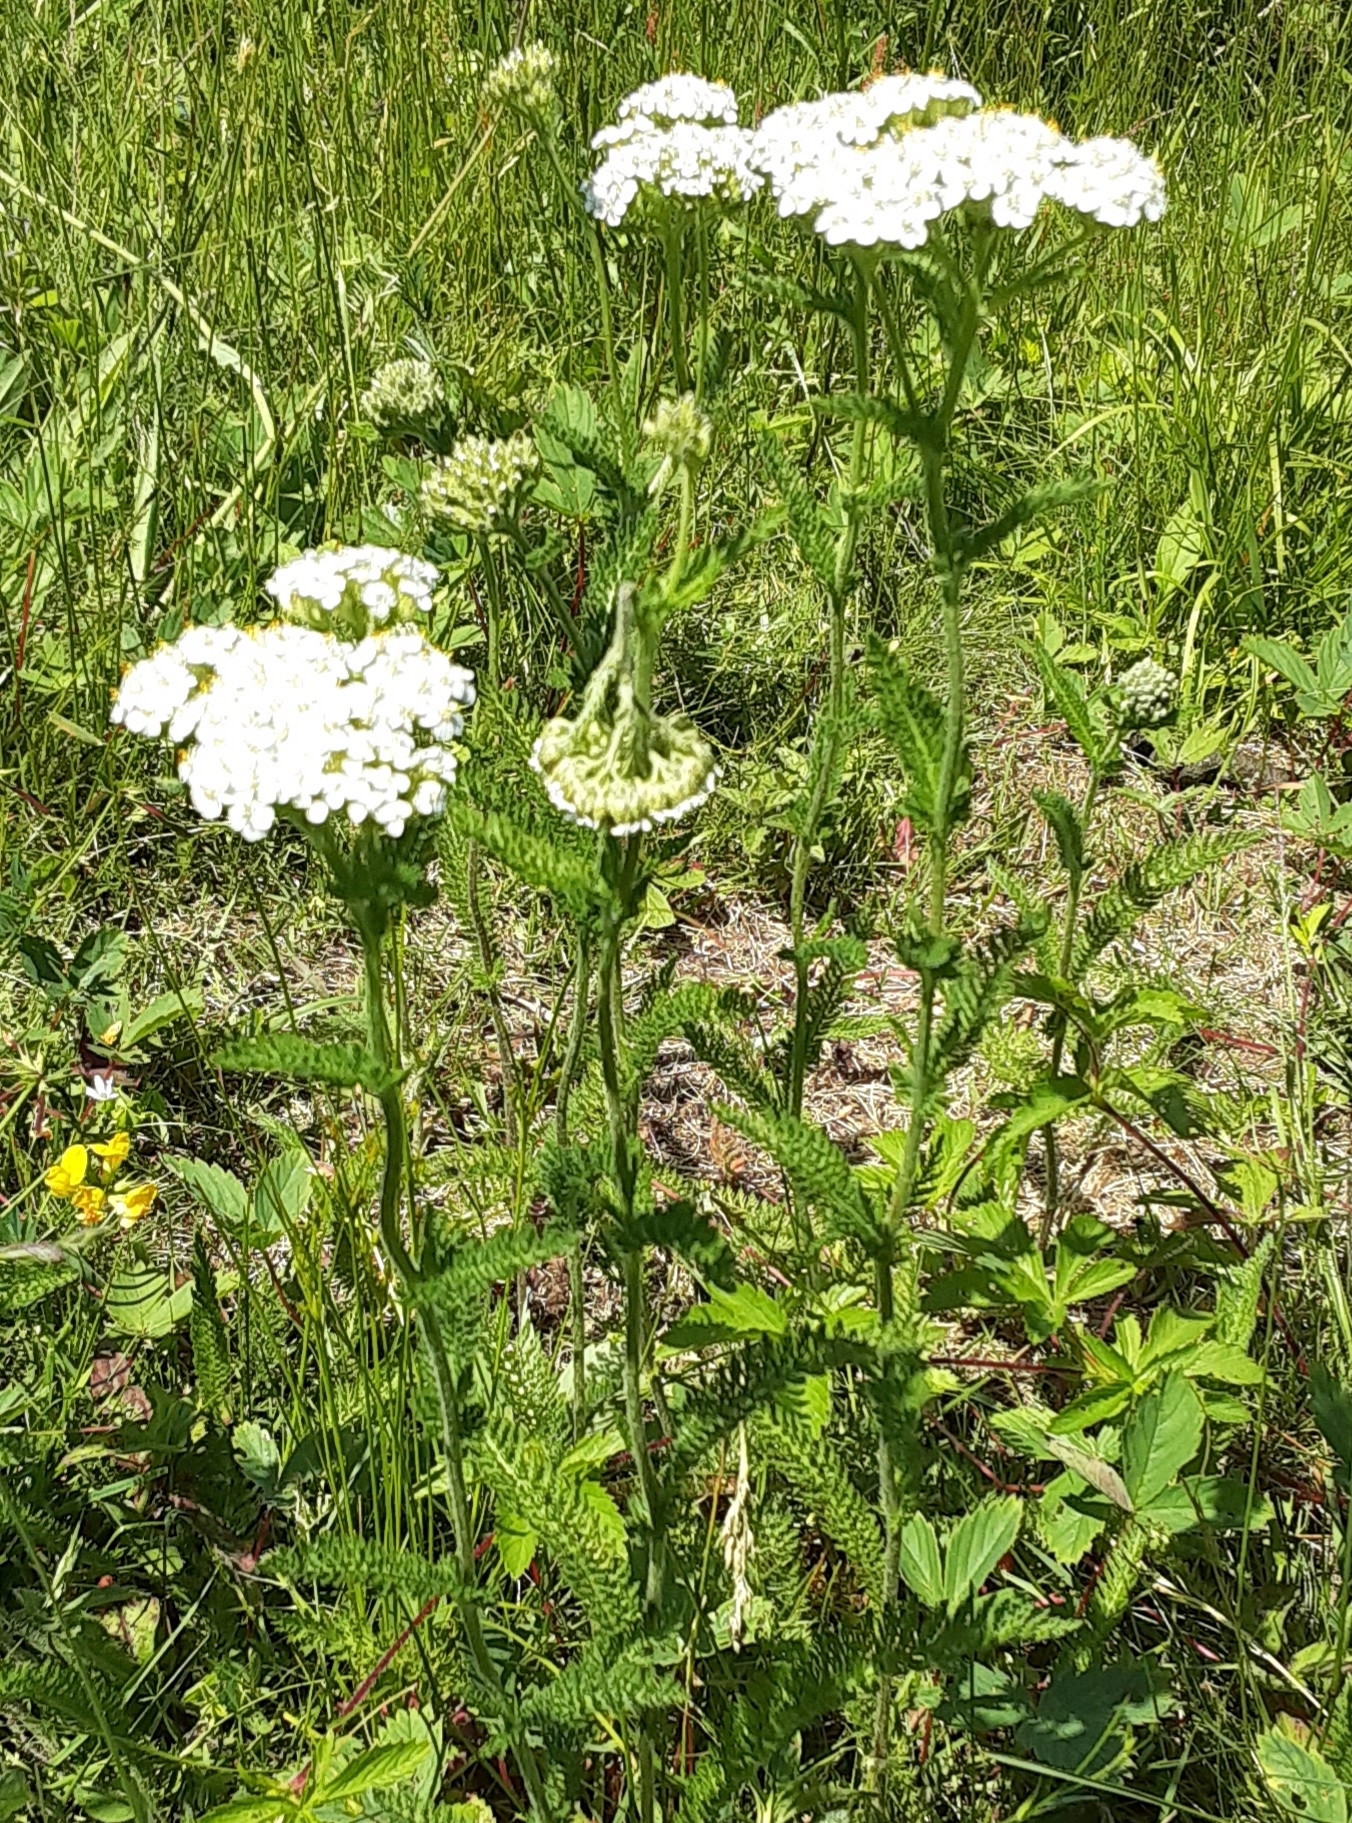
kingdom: Plantae
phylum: Tracheophyta
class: Magnoliopsida
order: Asterales
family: Asteraceae
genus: Achillea
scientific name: Achillea millefolium
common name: Yarrow
